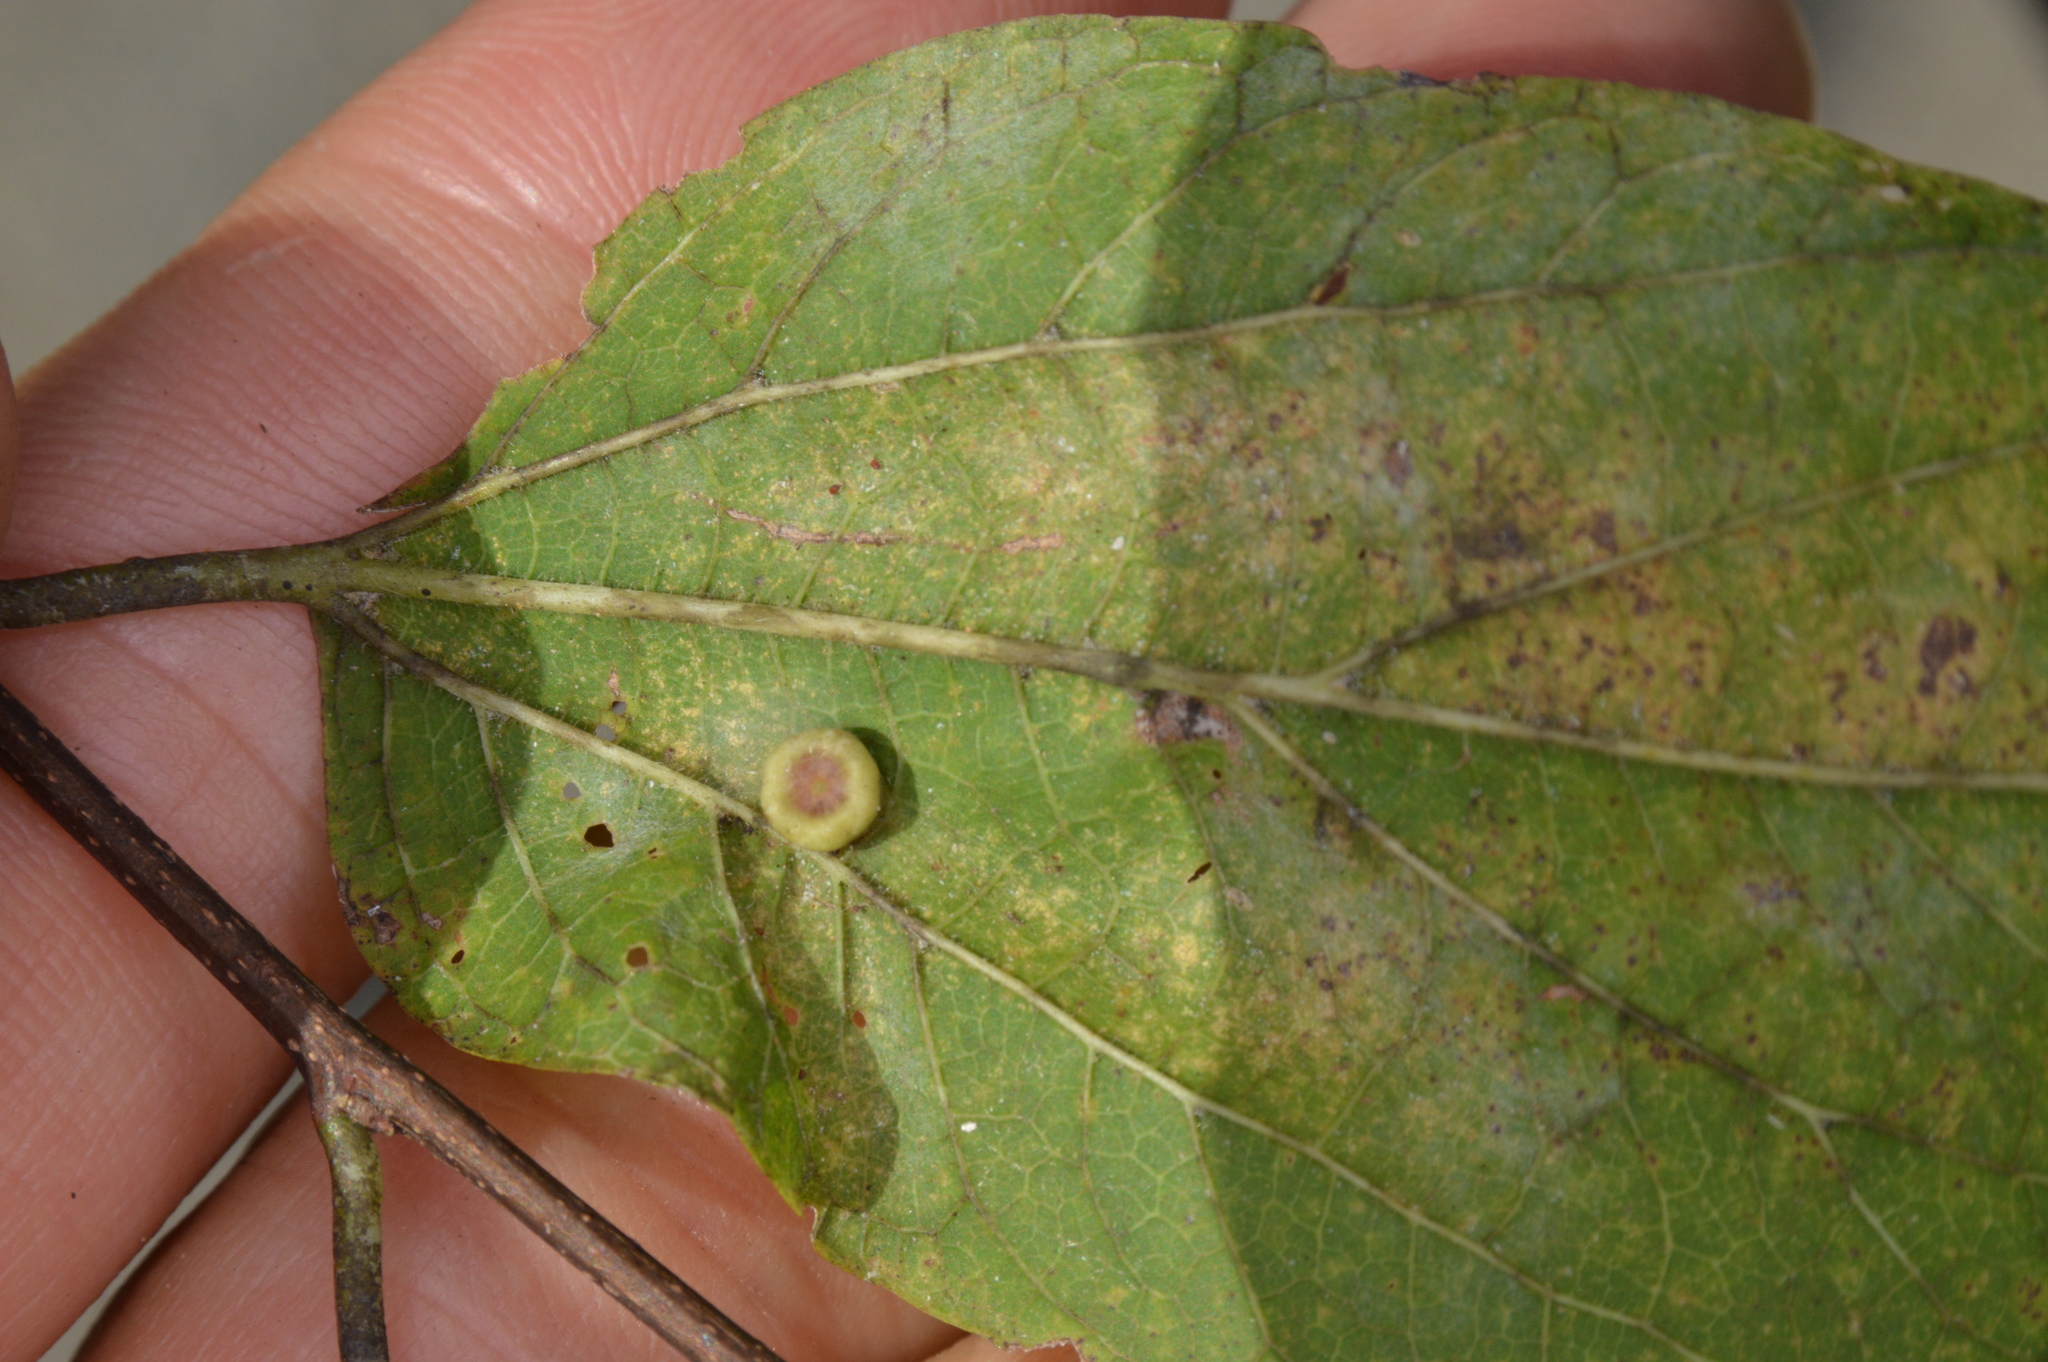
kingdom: Animalia
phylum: Arthropoda
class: Insecta
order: Hemiptera
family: Aphalaridae
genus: Pachypsylla
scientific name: Pachypsylla celtidismamma
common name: Hackberry nipplegall psyllid
